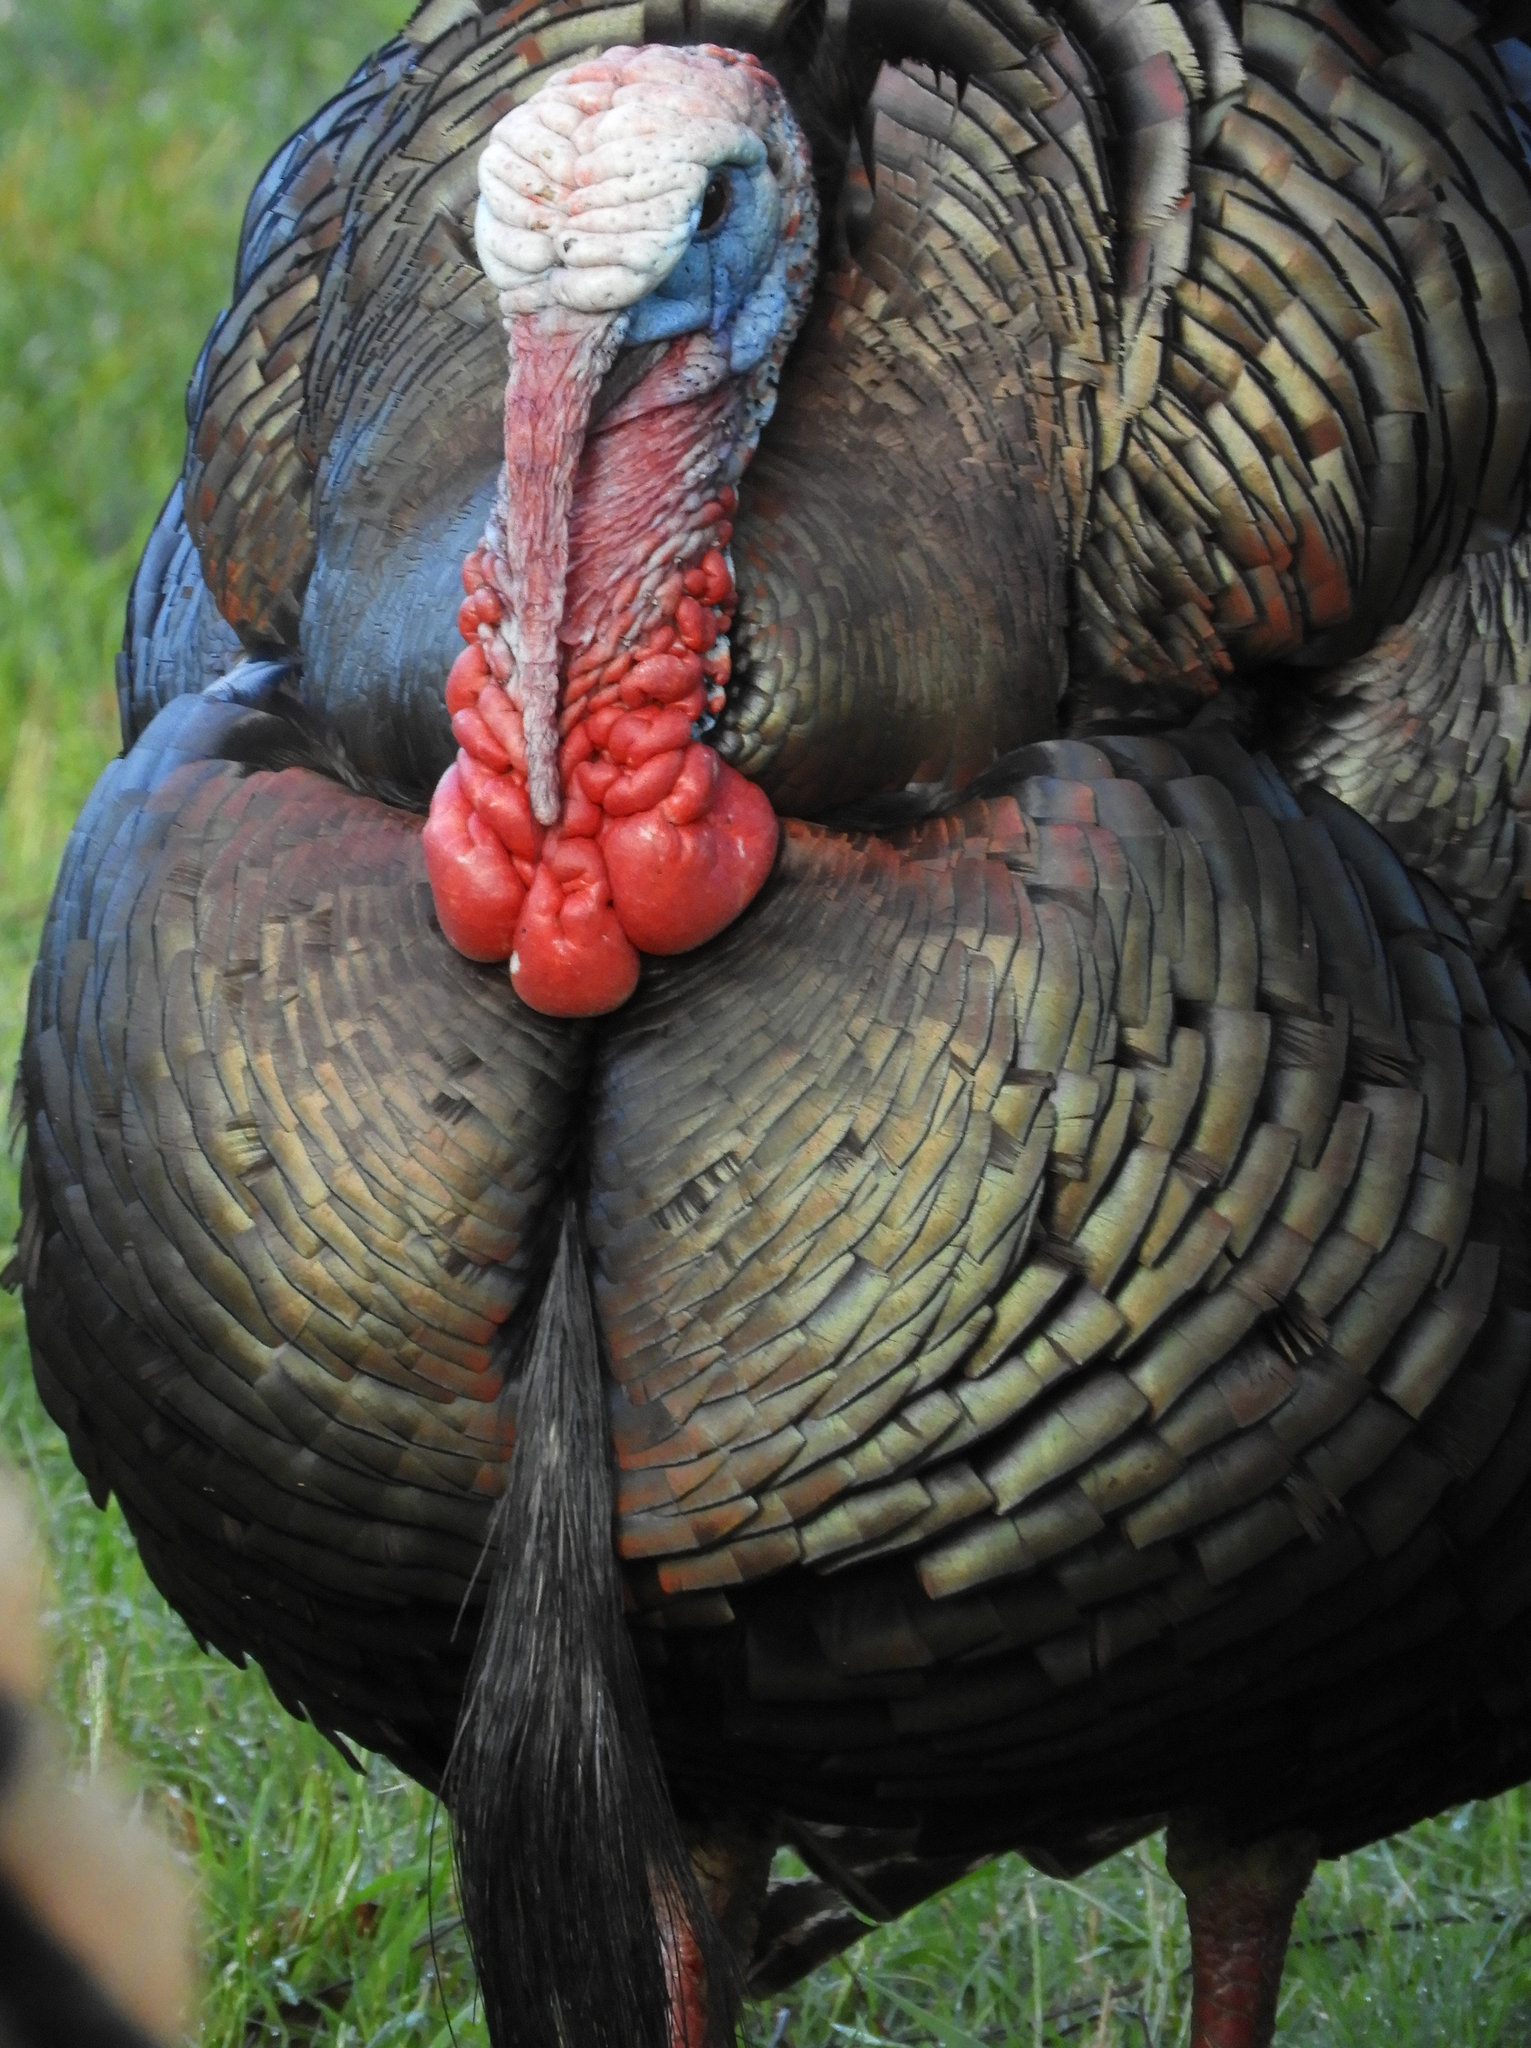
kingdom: Animalia
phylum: Chordata
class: Aves
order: Galliformes
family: Phasianidae
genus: Meleagris
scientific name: Meleagris gallopavo
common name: Wild turkey
